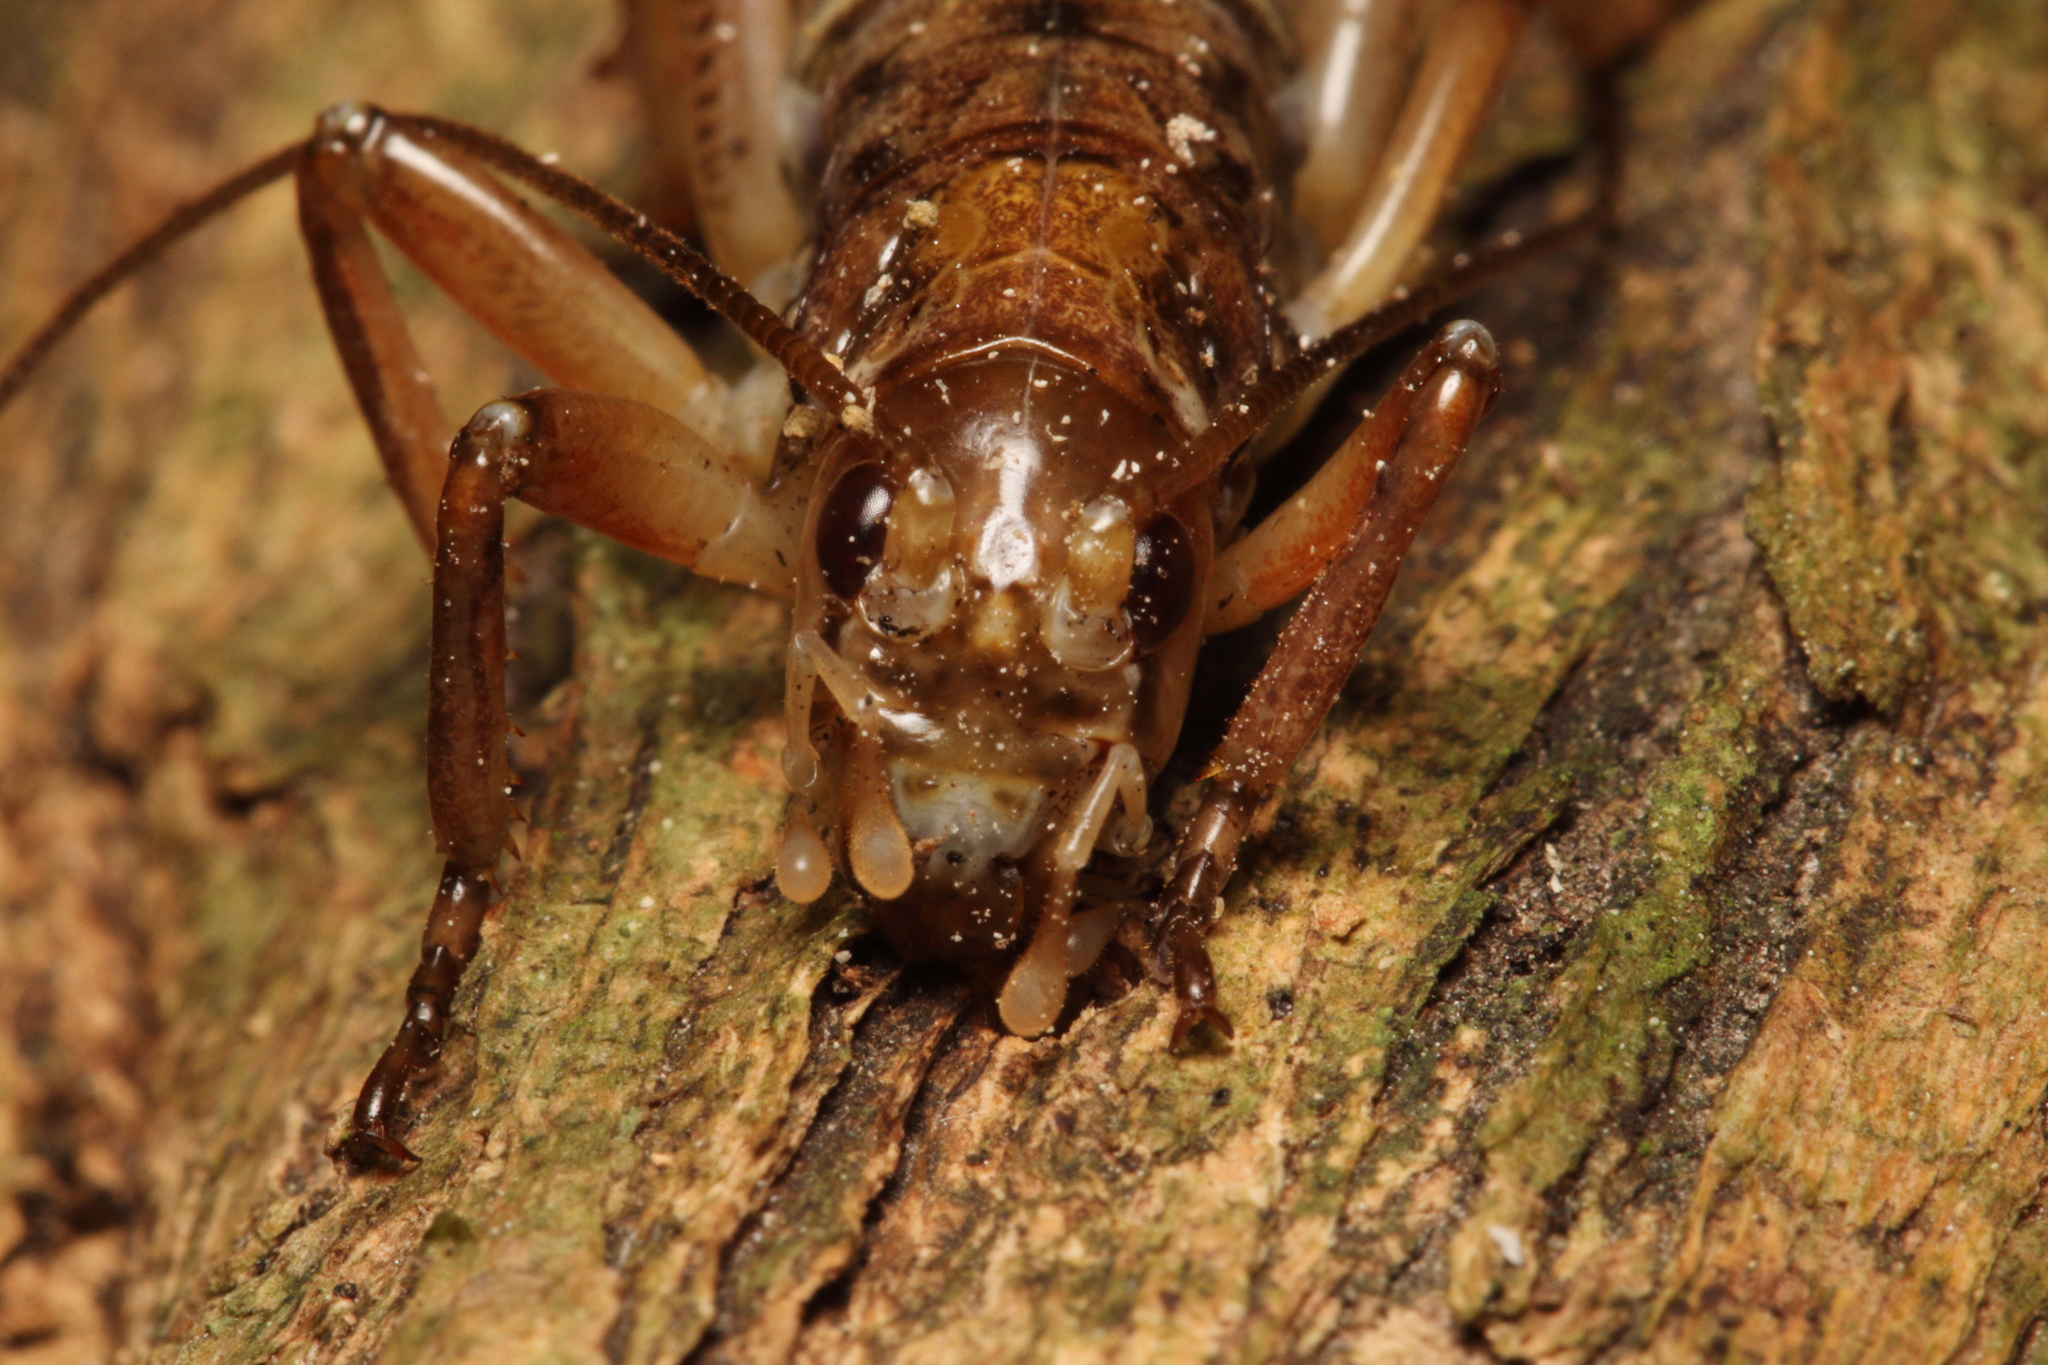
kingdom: Animalia
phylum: Arthropoda
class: Insecta
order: Orthoptera
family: Anostostomatidae
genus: Hemideina
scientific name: Hemideina femorata
